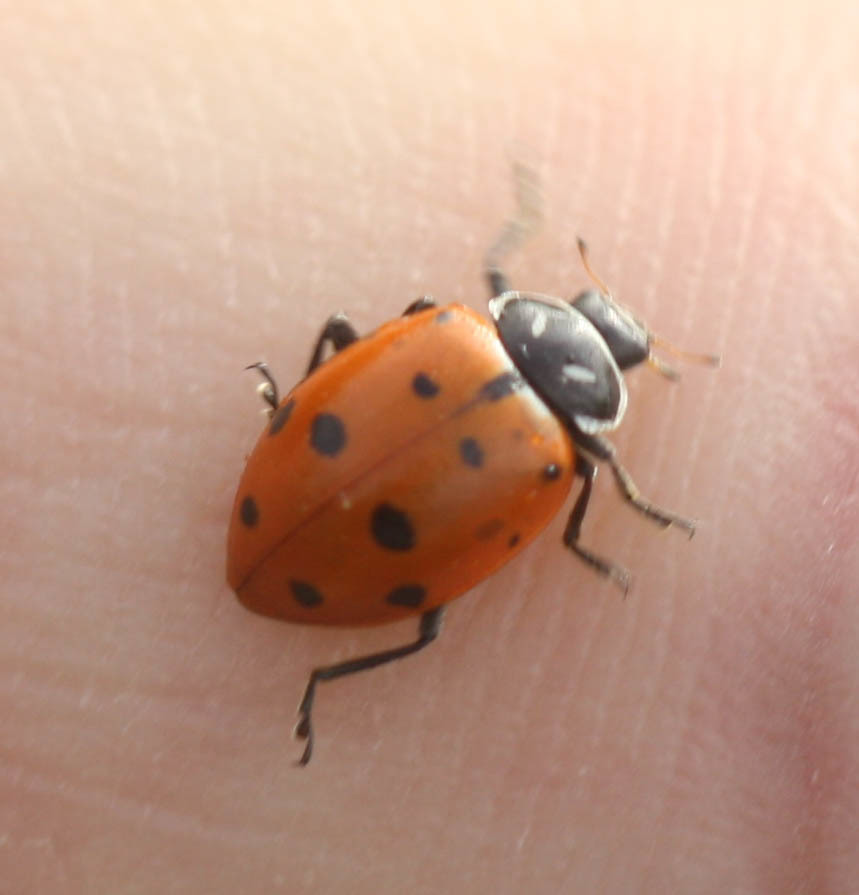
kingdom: Animalia
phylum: Arthropoda
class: Insecta
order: Coleoptera
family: Coccinellidae
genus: Hippodamia
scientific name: Hippodamia convergens
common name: Convergent lady beetle
